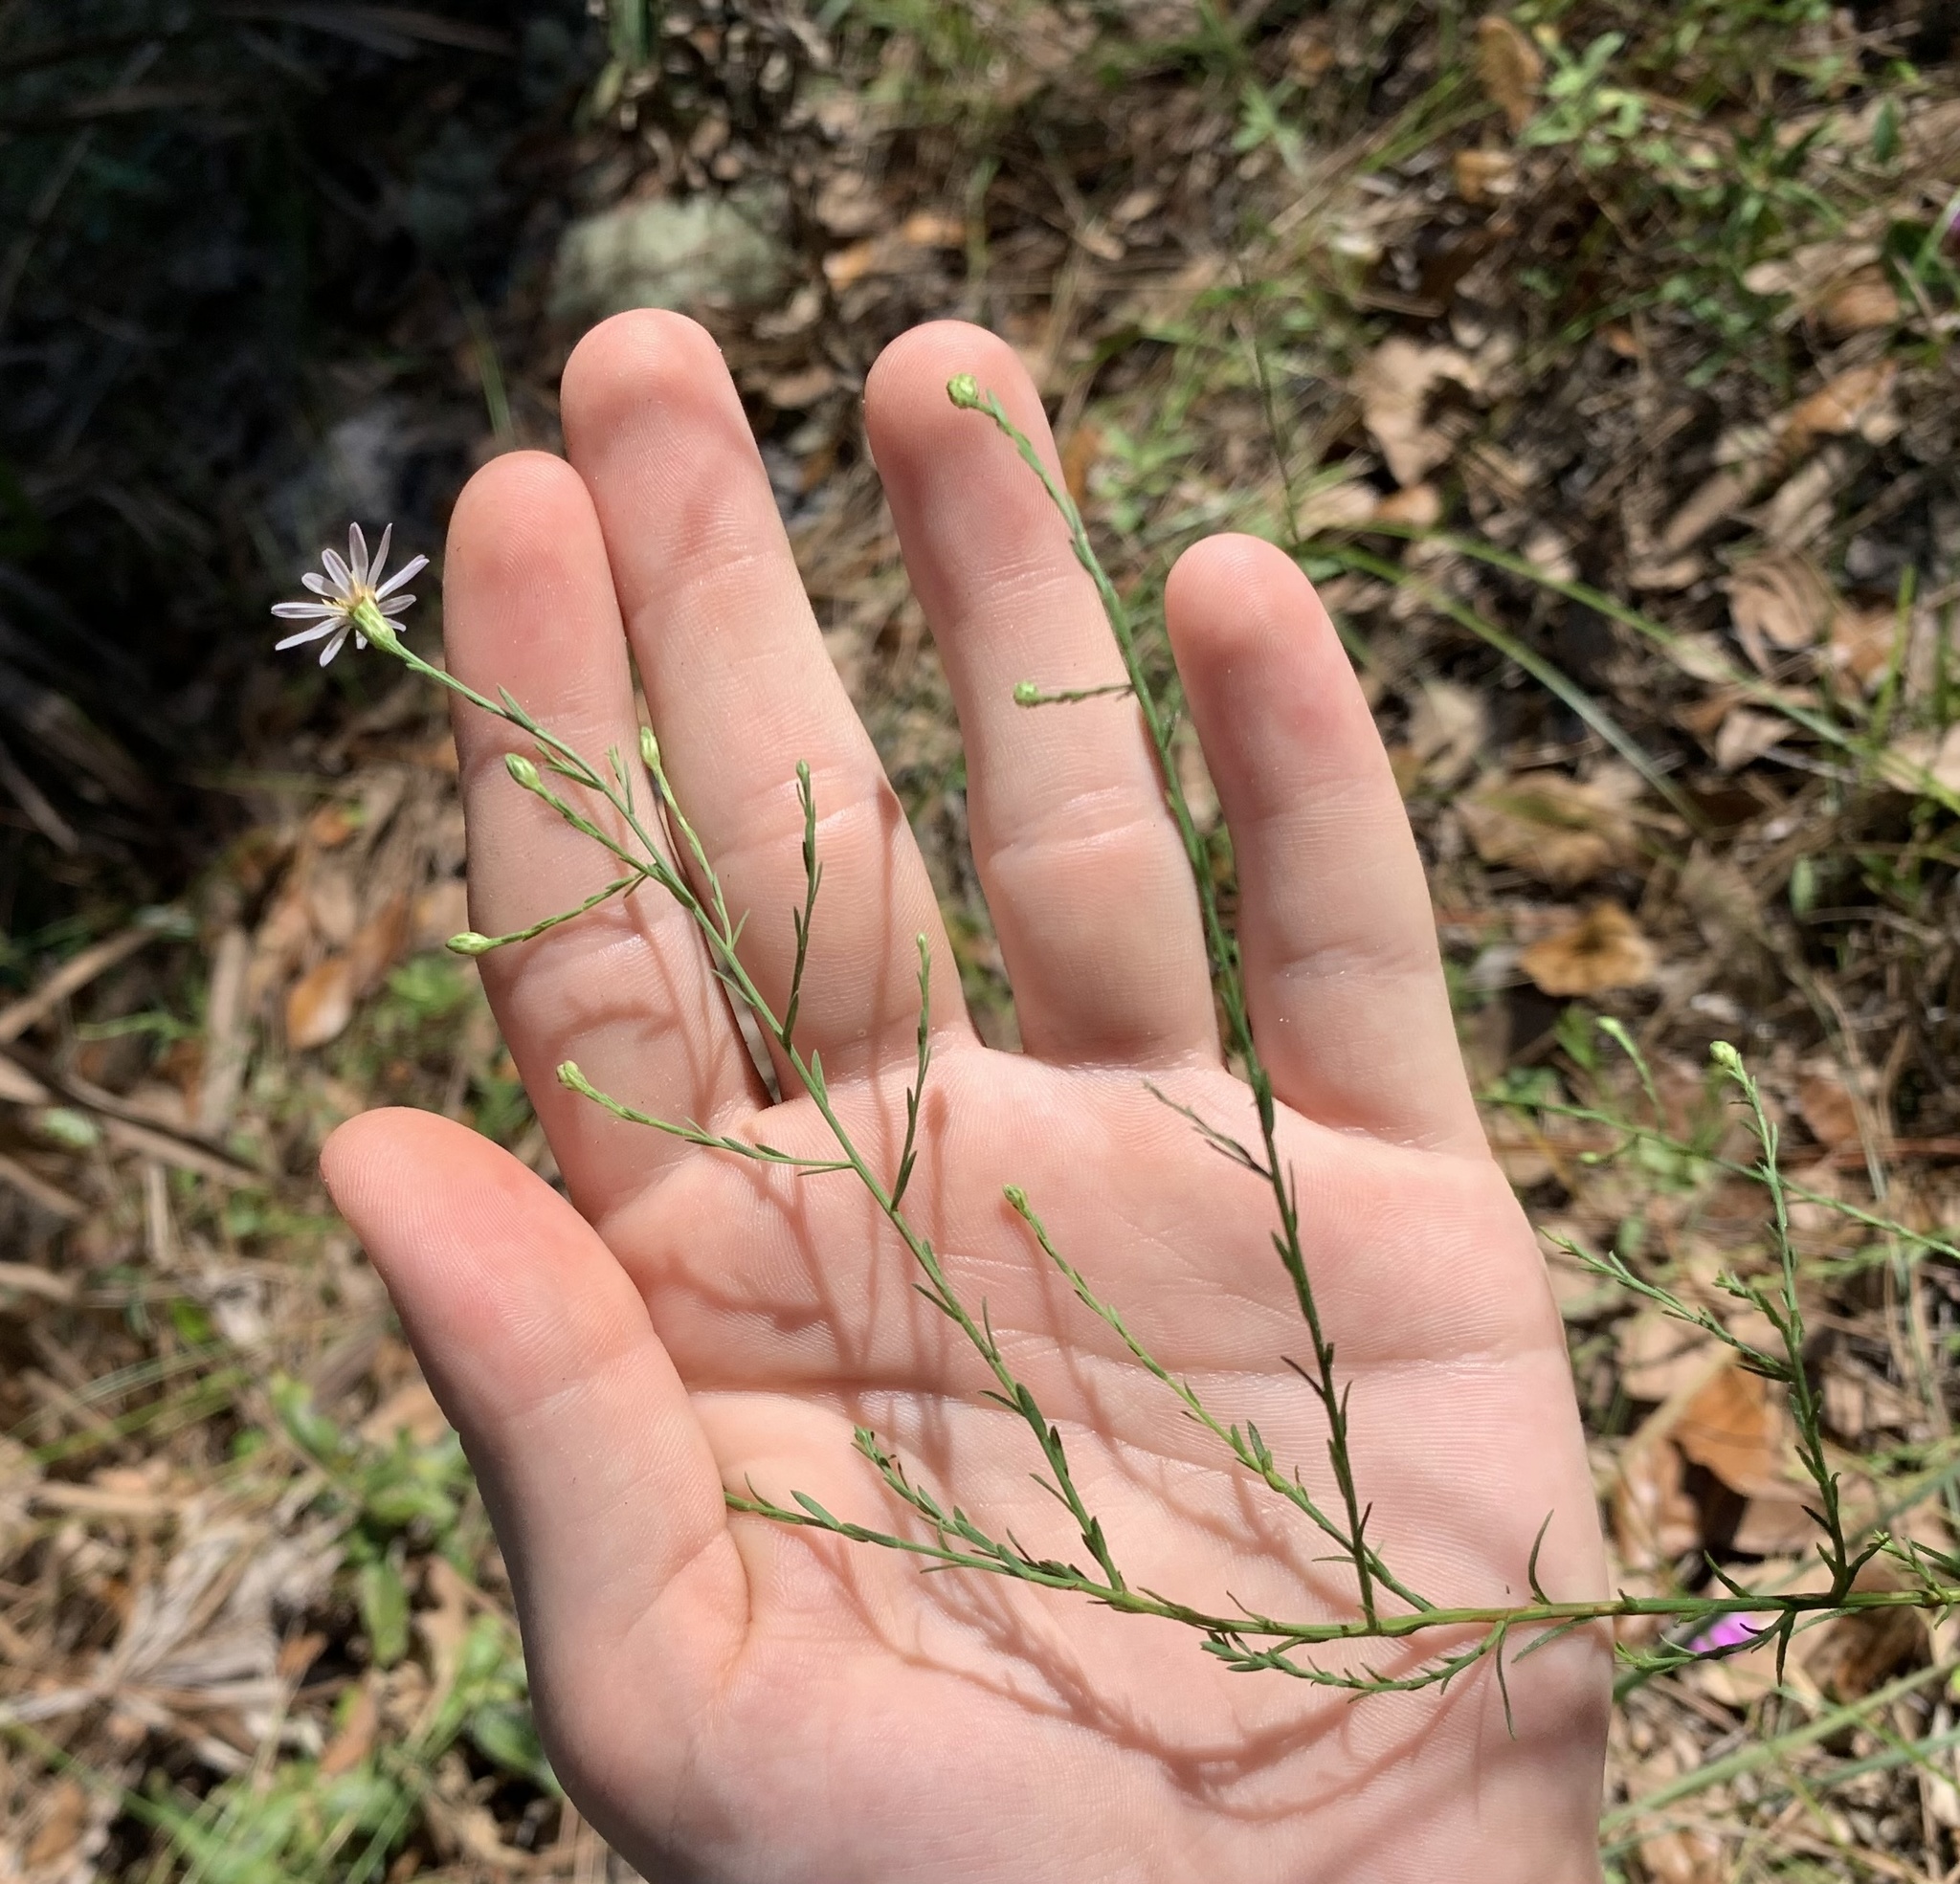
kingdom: Plantae
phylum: Tracheophyta
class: Magnoliopsida
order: Asterales
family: Asteraceae
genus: Symphyotrichum
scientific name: Symphyotrichum dumosum
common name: Bushy aster
